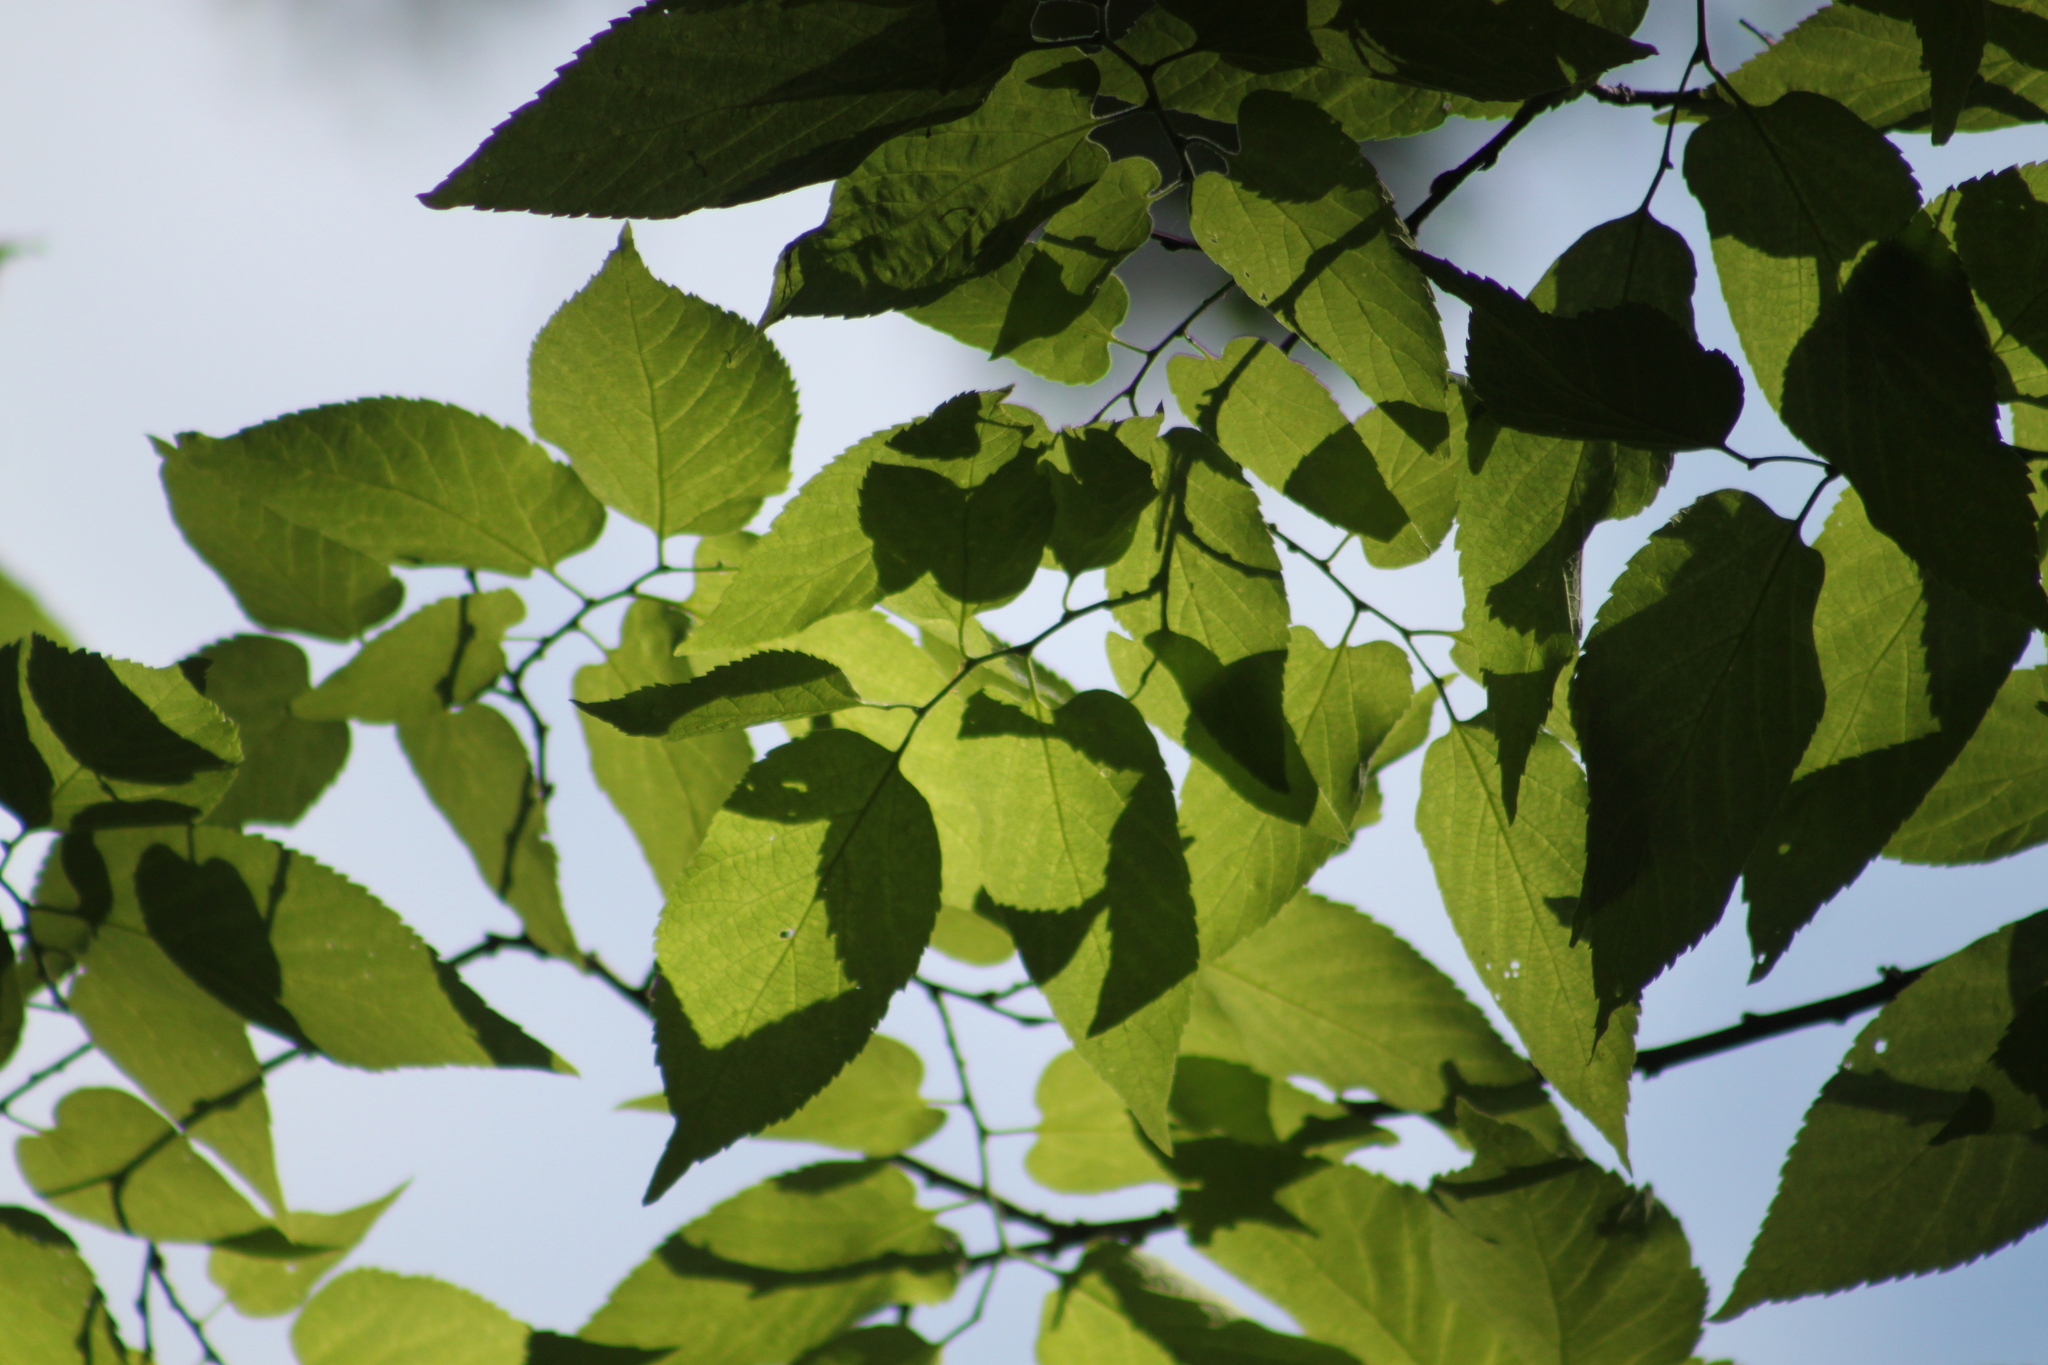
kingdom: Plantae
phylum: Tracheophyta
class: Magnoliopsida
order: Rosales
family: Cannabaceae
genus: Celtis
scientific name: Celtis occidentalis
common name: Common hackberry
